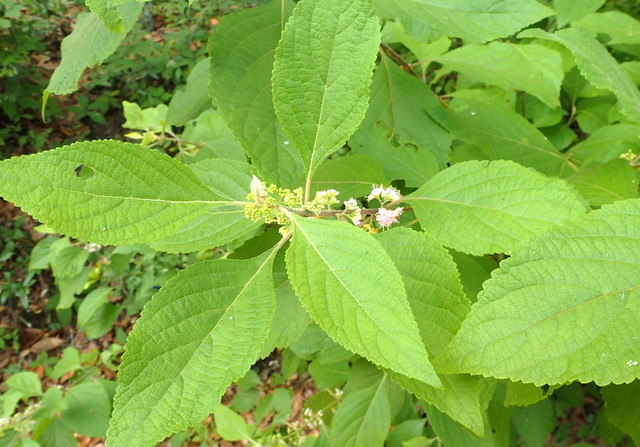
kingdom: Plantae
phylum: Tracheophyta
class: Magnoliopsida
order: Lamiales
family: Lamiaceae
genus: Callicarpa
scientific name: Callicarpa americana
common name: American beautyberry
